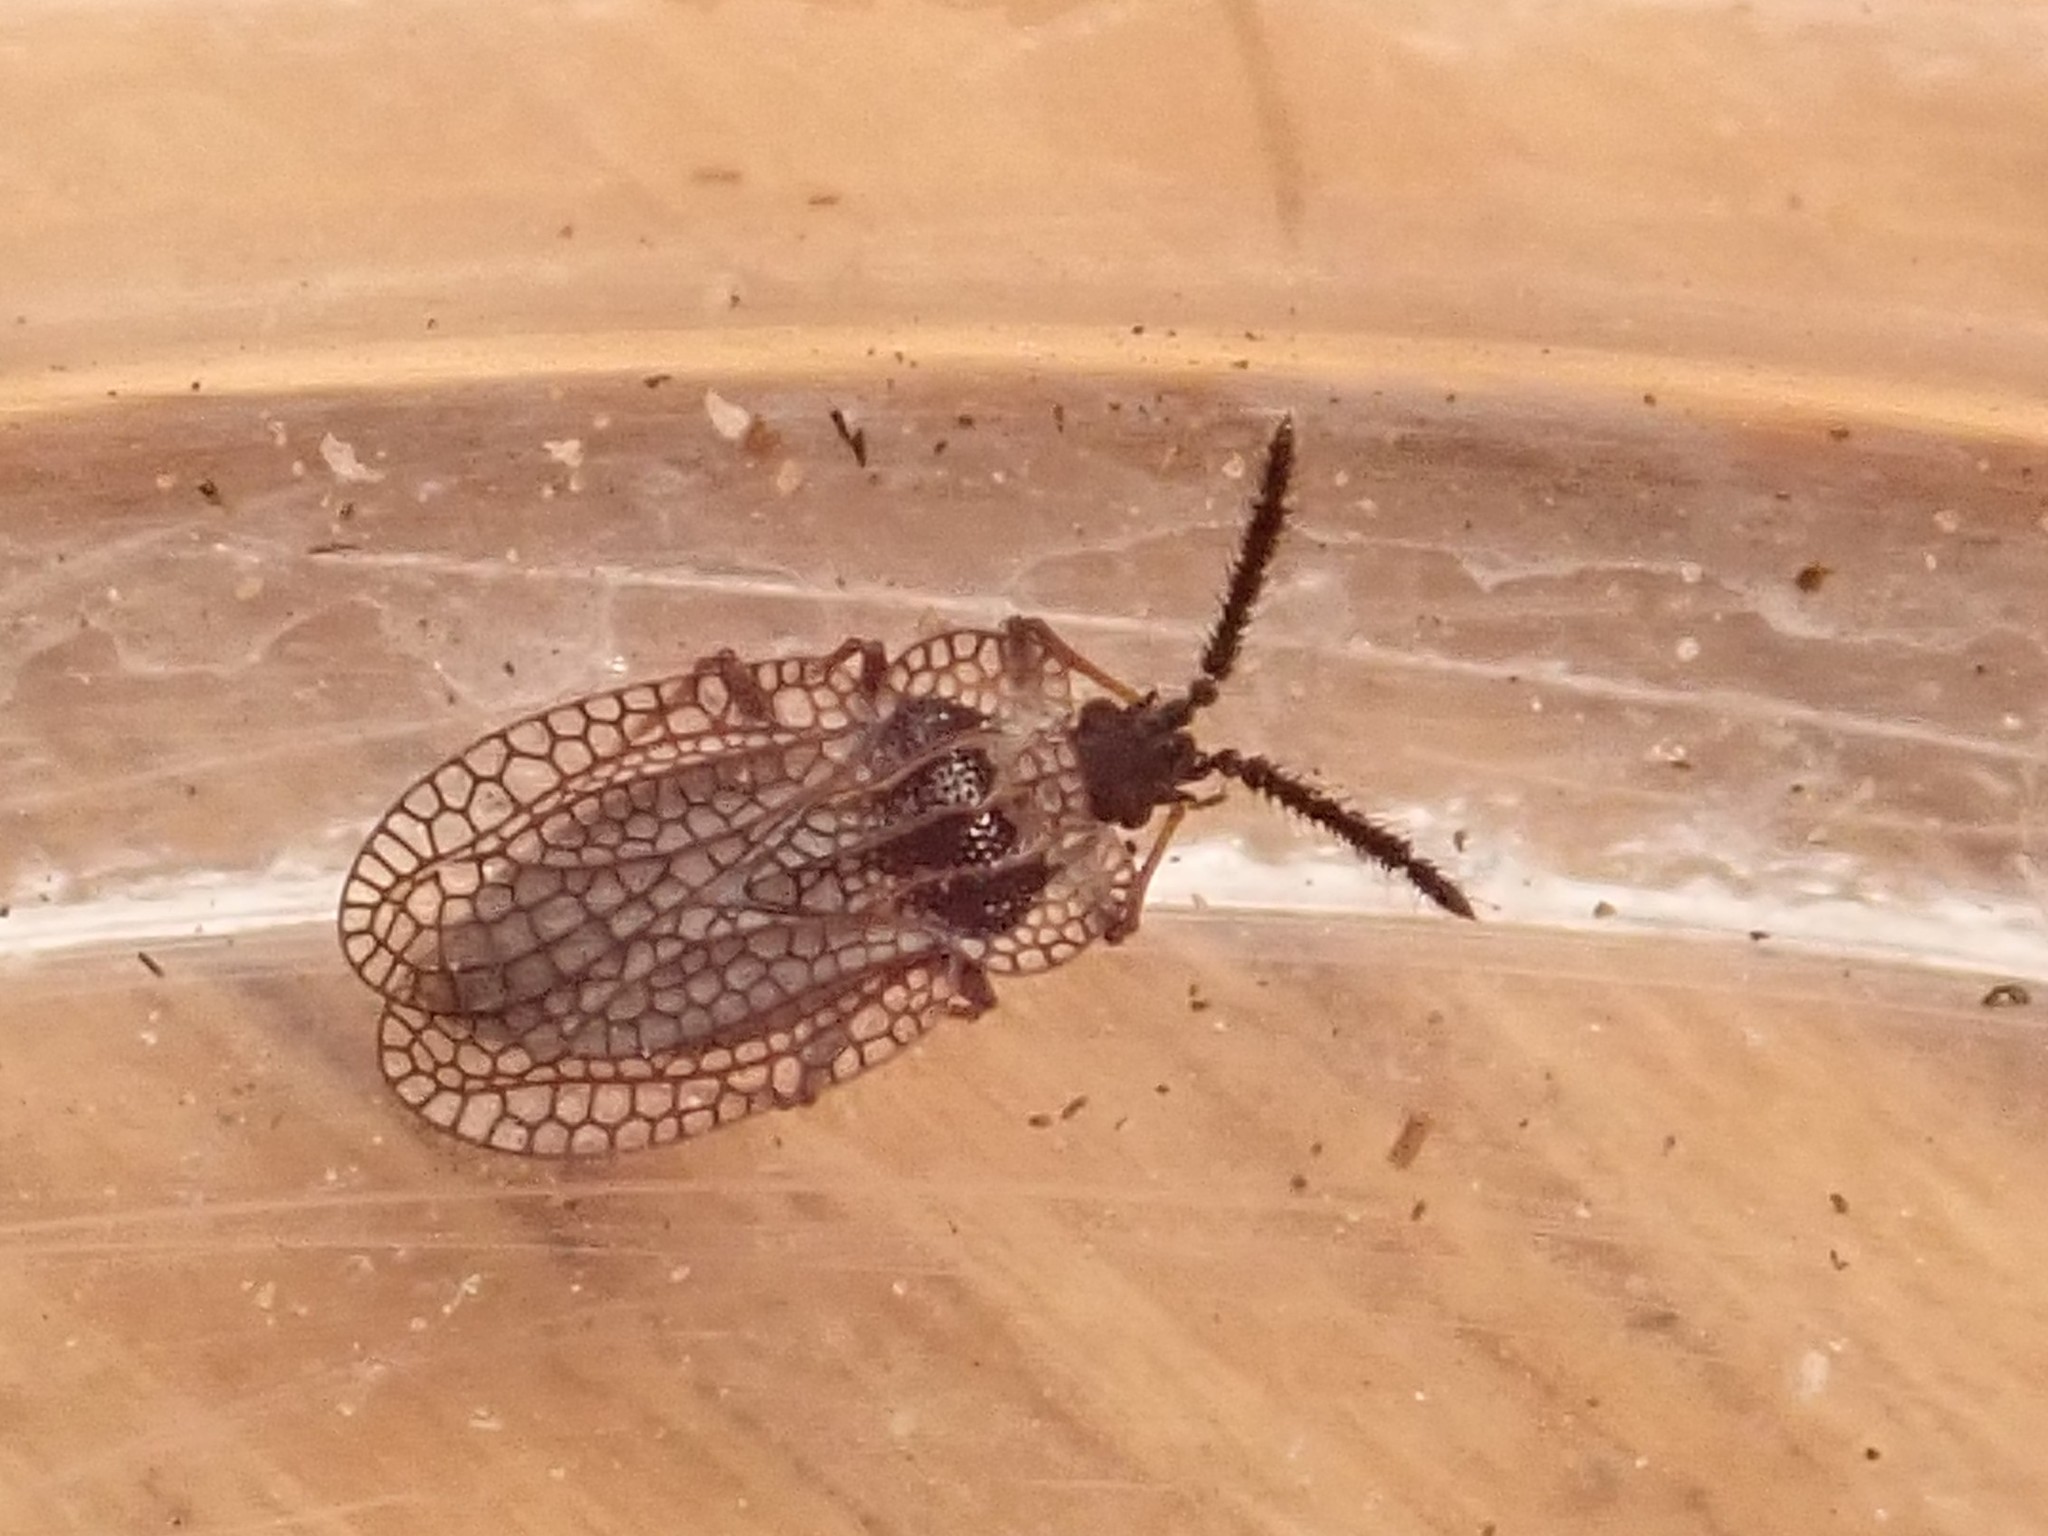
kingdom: Animalia
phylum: Arthropoda
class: Insecta
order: Hemiptera
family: Tingidae
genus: Dictyonota
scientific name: Dictyonota tricornis
